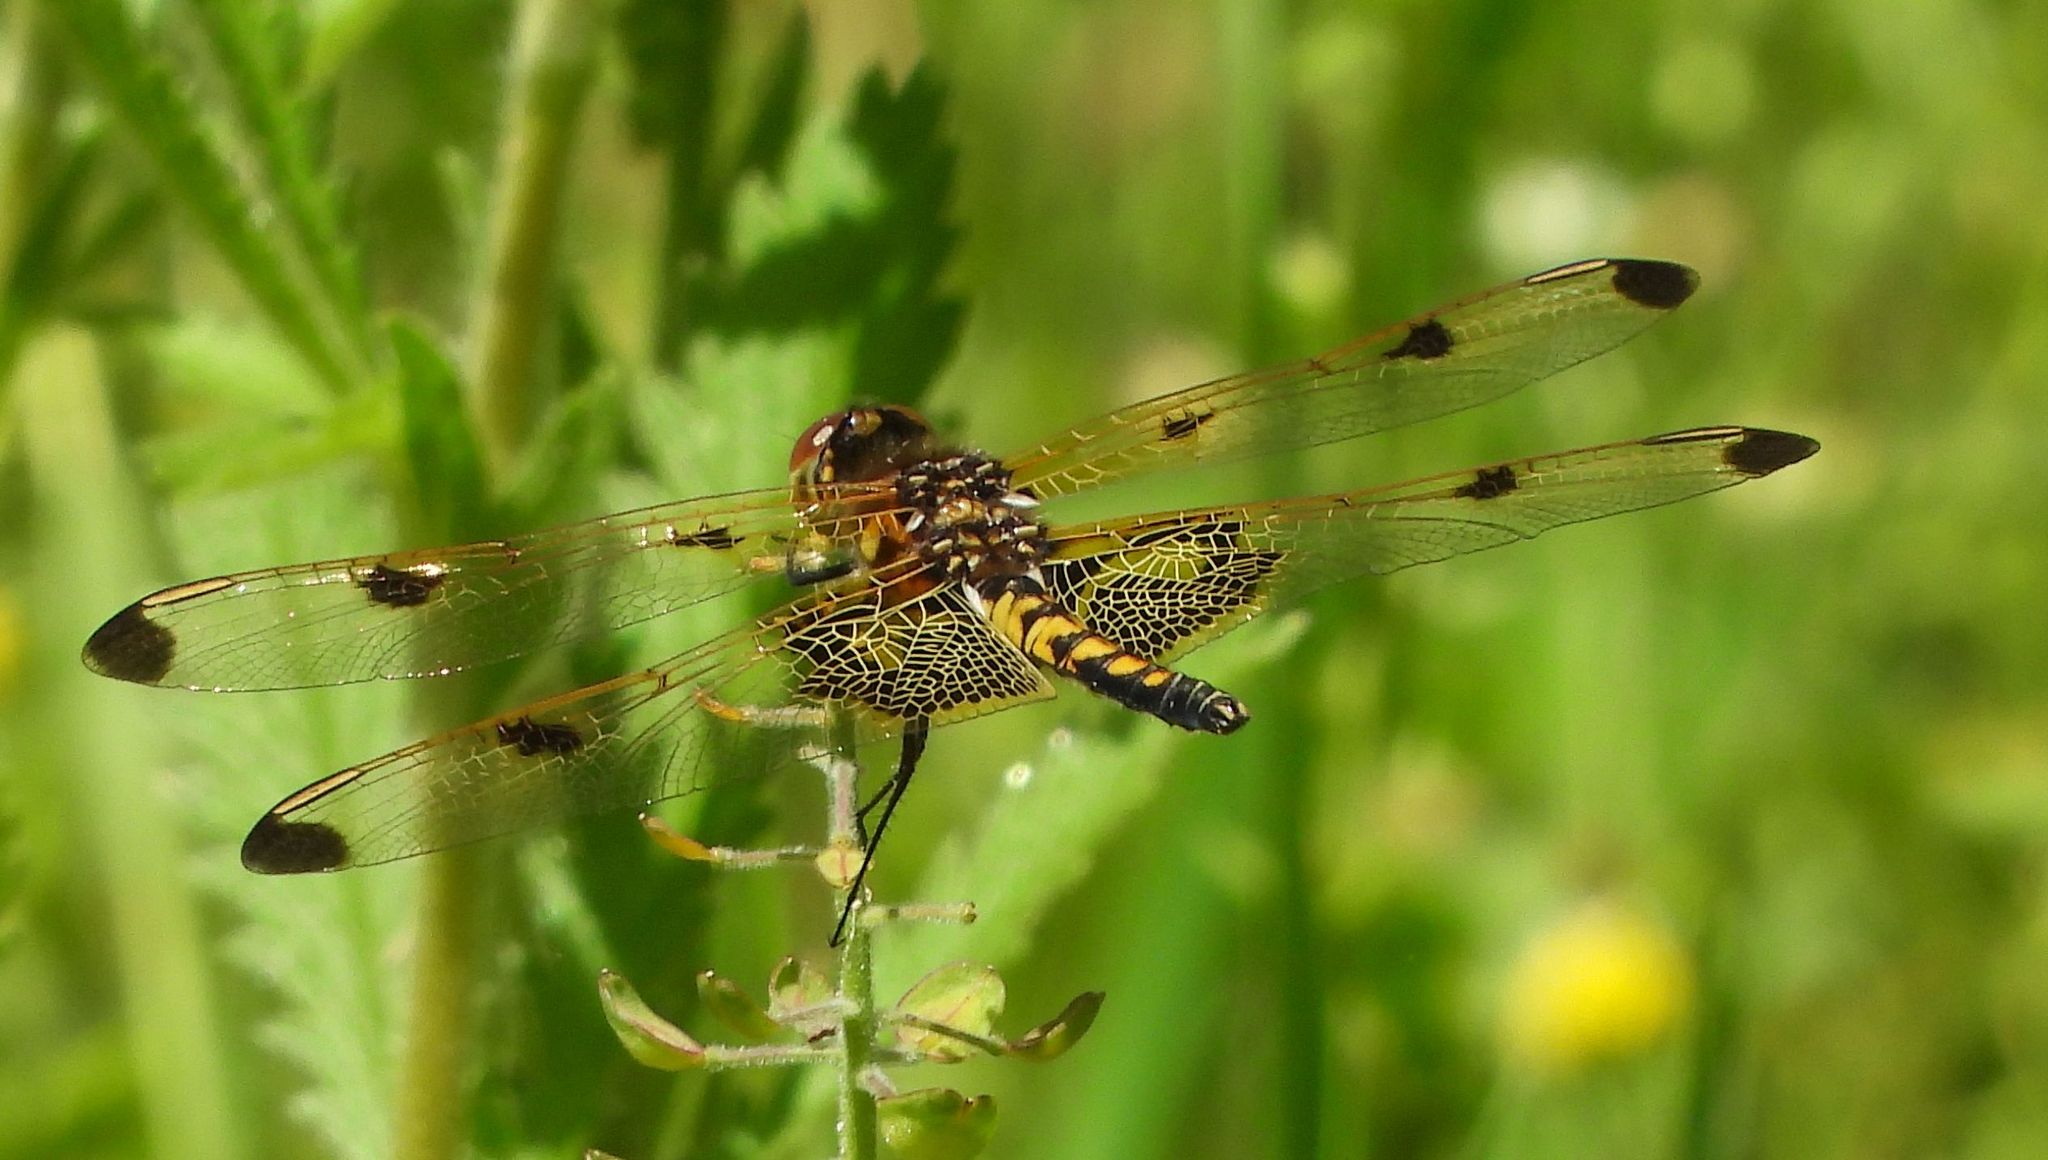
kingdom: Animalia
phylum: Arthropoda
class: Insecta
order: Odonata
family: Libellulidae
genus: Celithemis
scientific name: Celithemis elisa
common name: Calico pennant
